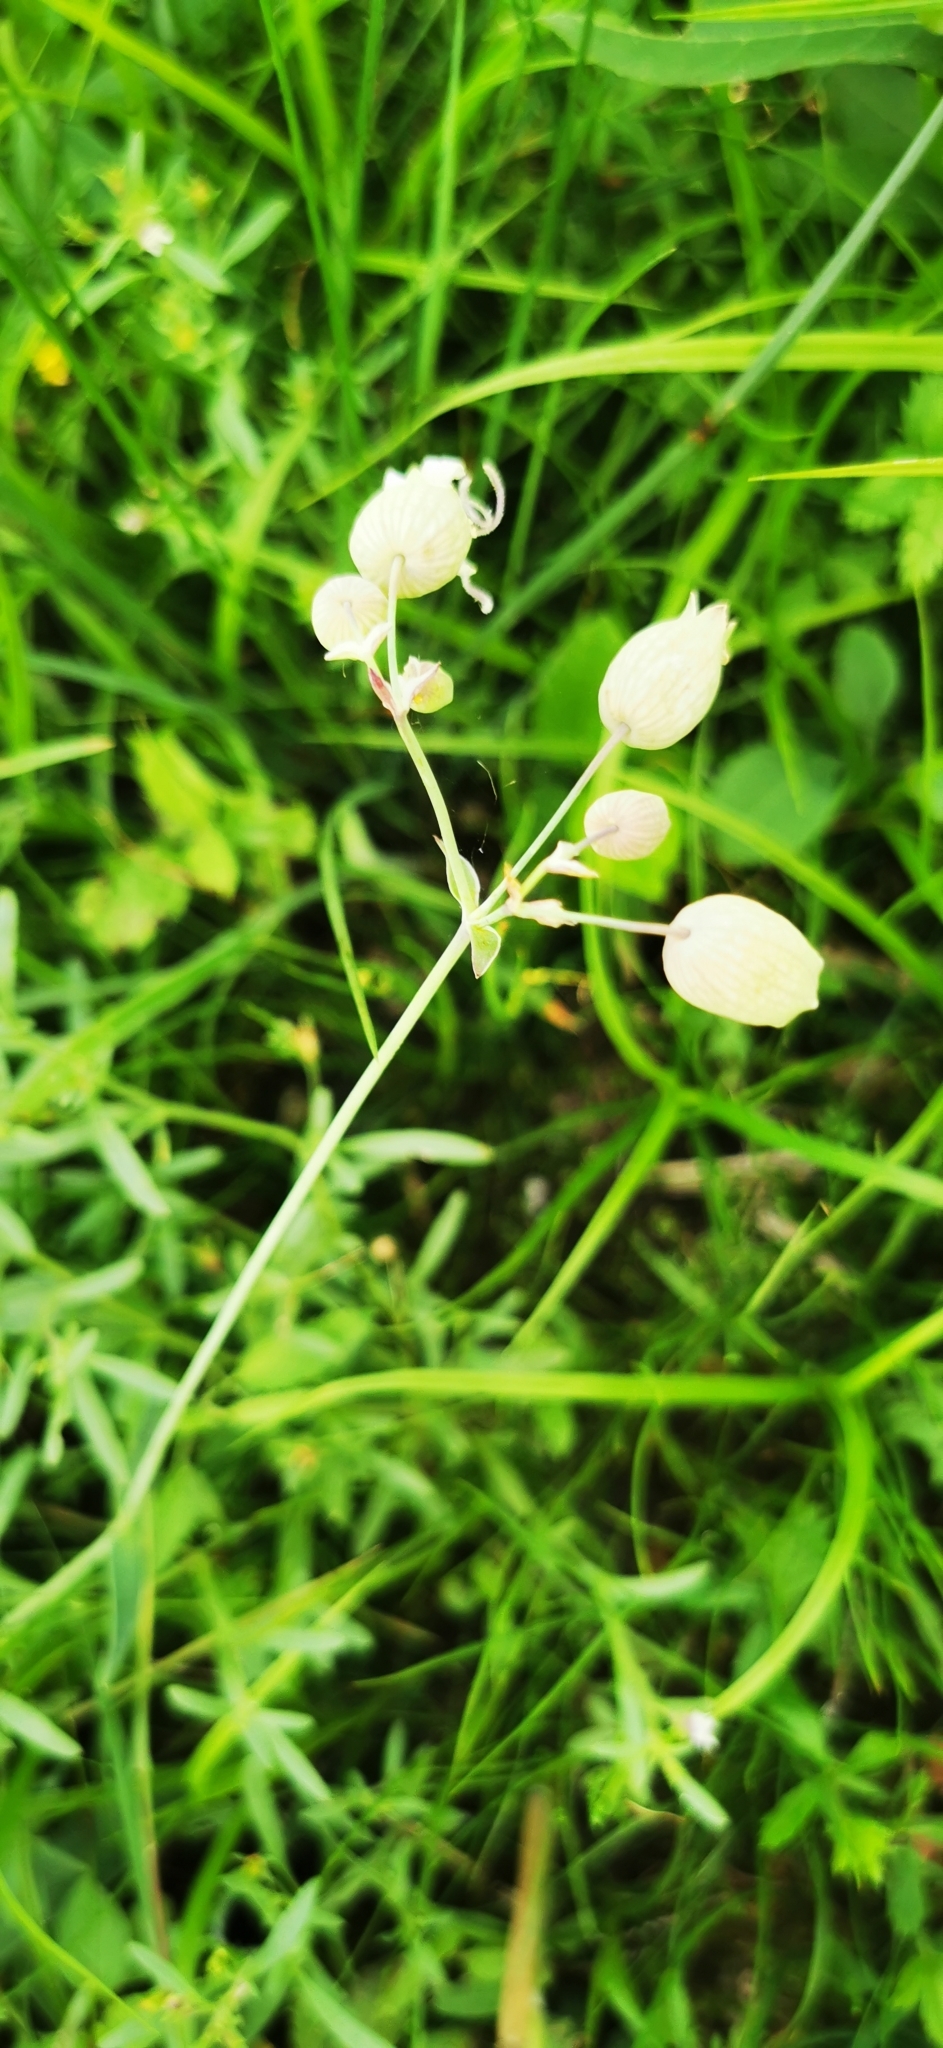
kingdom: Plantae
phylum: Tracheophyta
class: Magnoliopsida
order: Caryophyllales
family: Caryophyllaceae
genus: Silene
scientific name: Silene vulgaris
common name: Bladder campion
